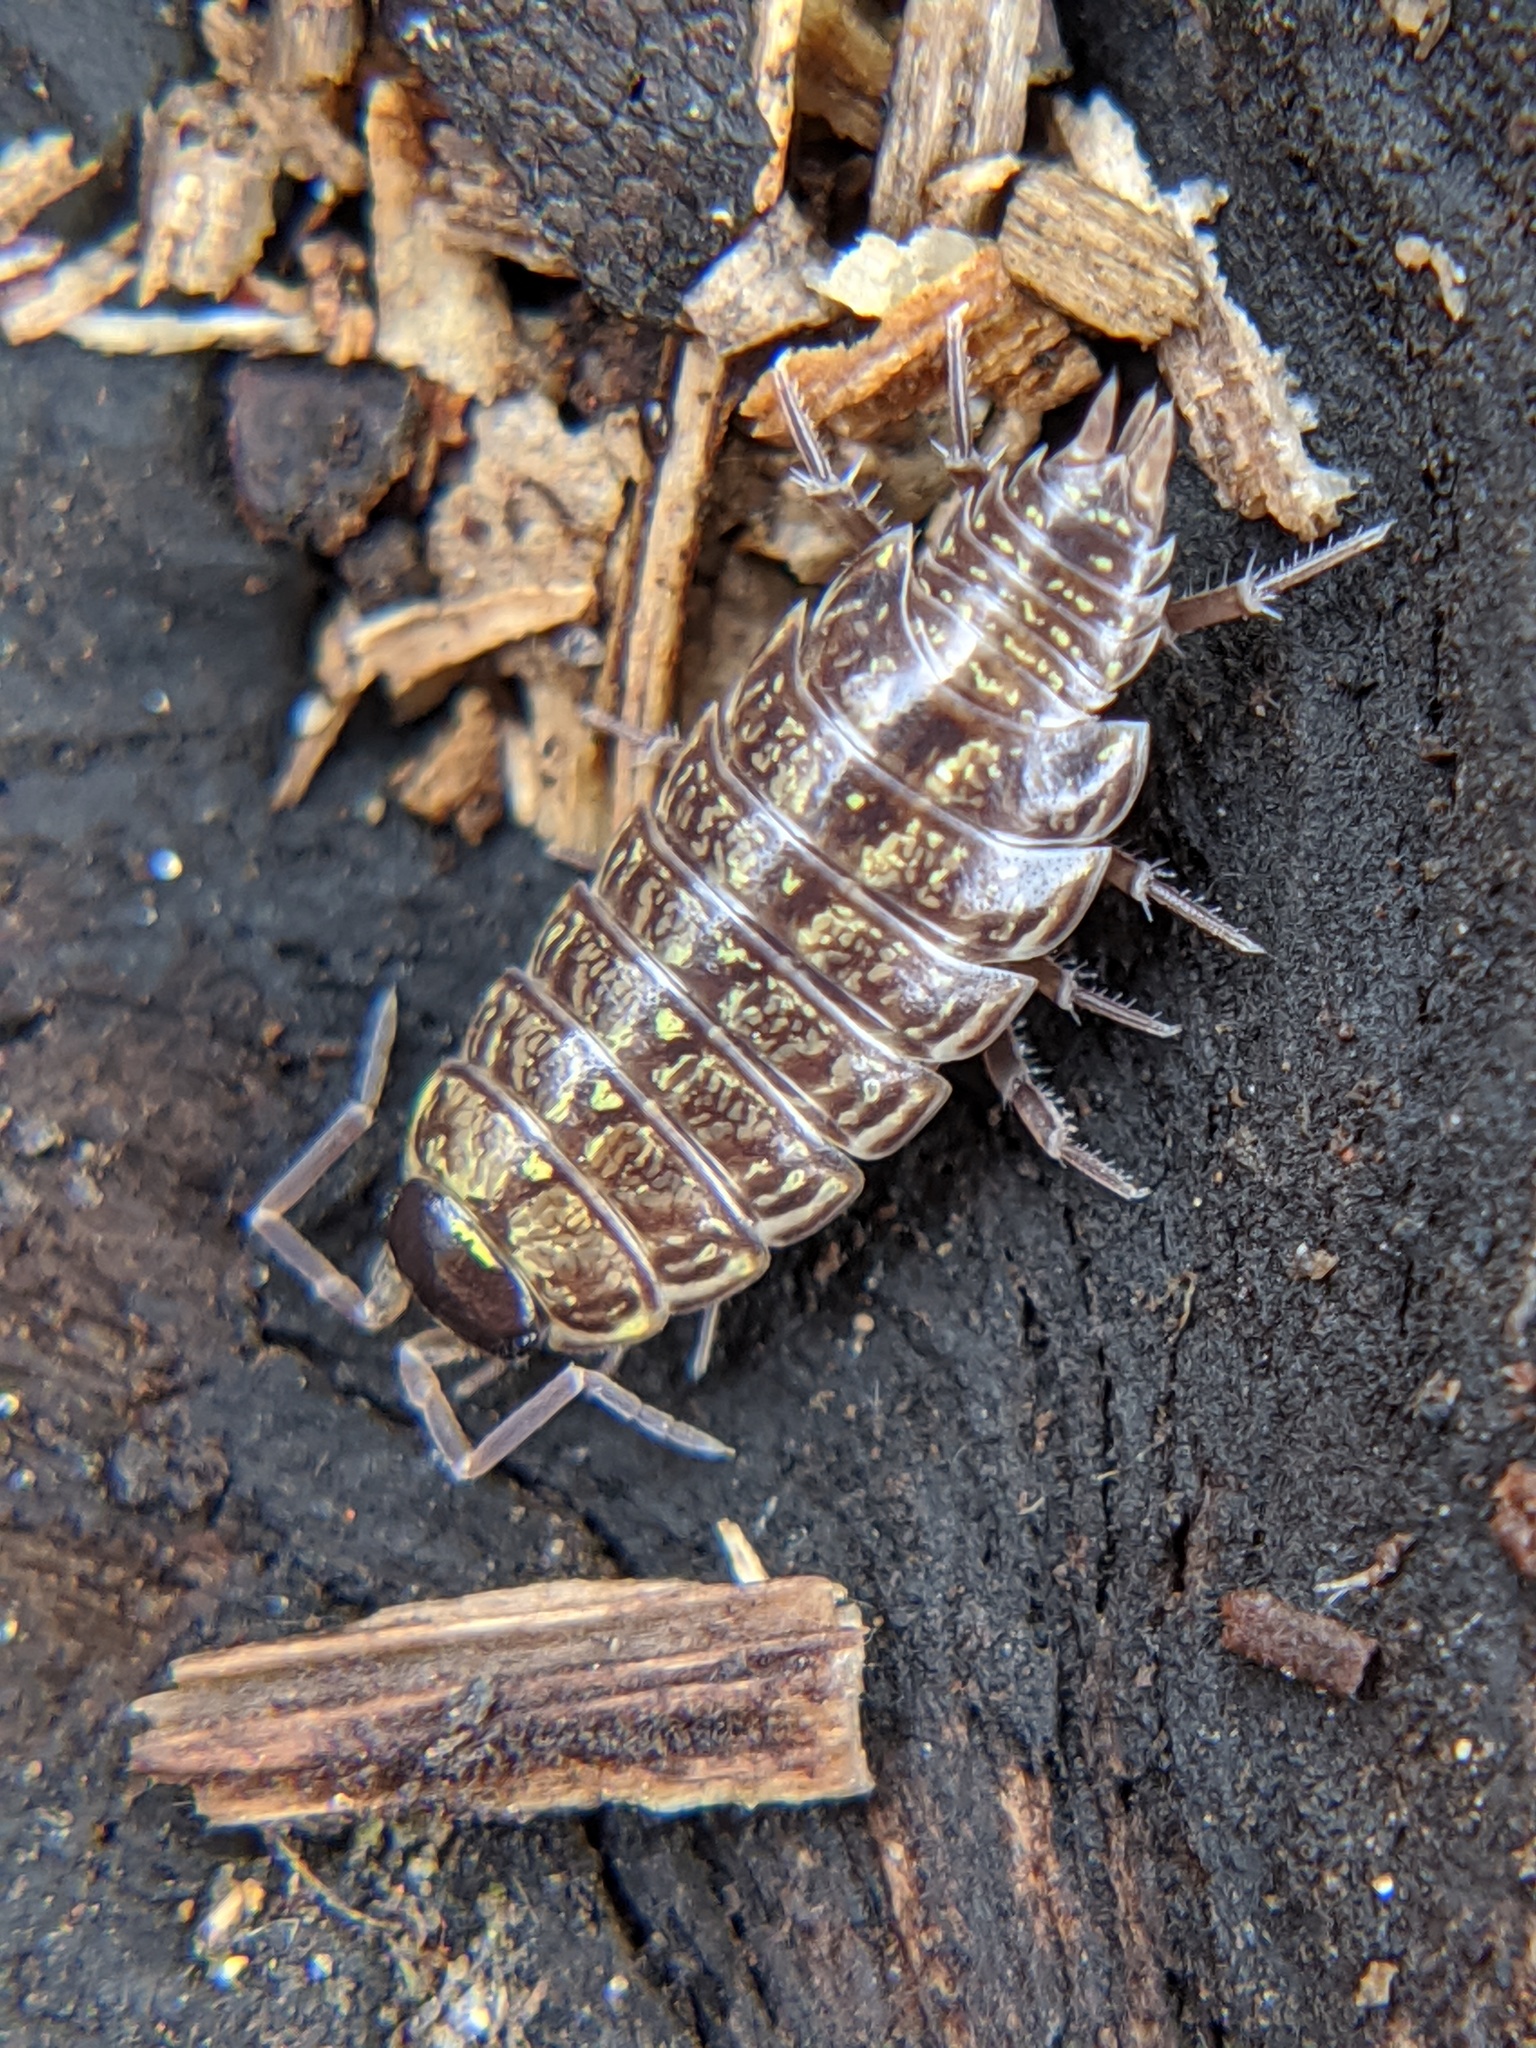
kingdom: Animalia
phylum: Arthropoda
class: Malacostraca
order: Isopoda
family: Philosciidae
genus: Philoscia
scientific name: Philoscia muscorum
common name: Common striped woodlouse
